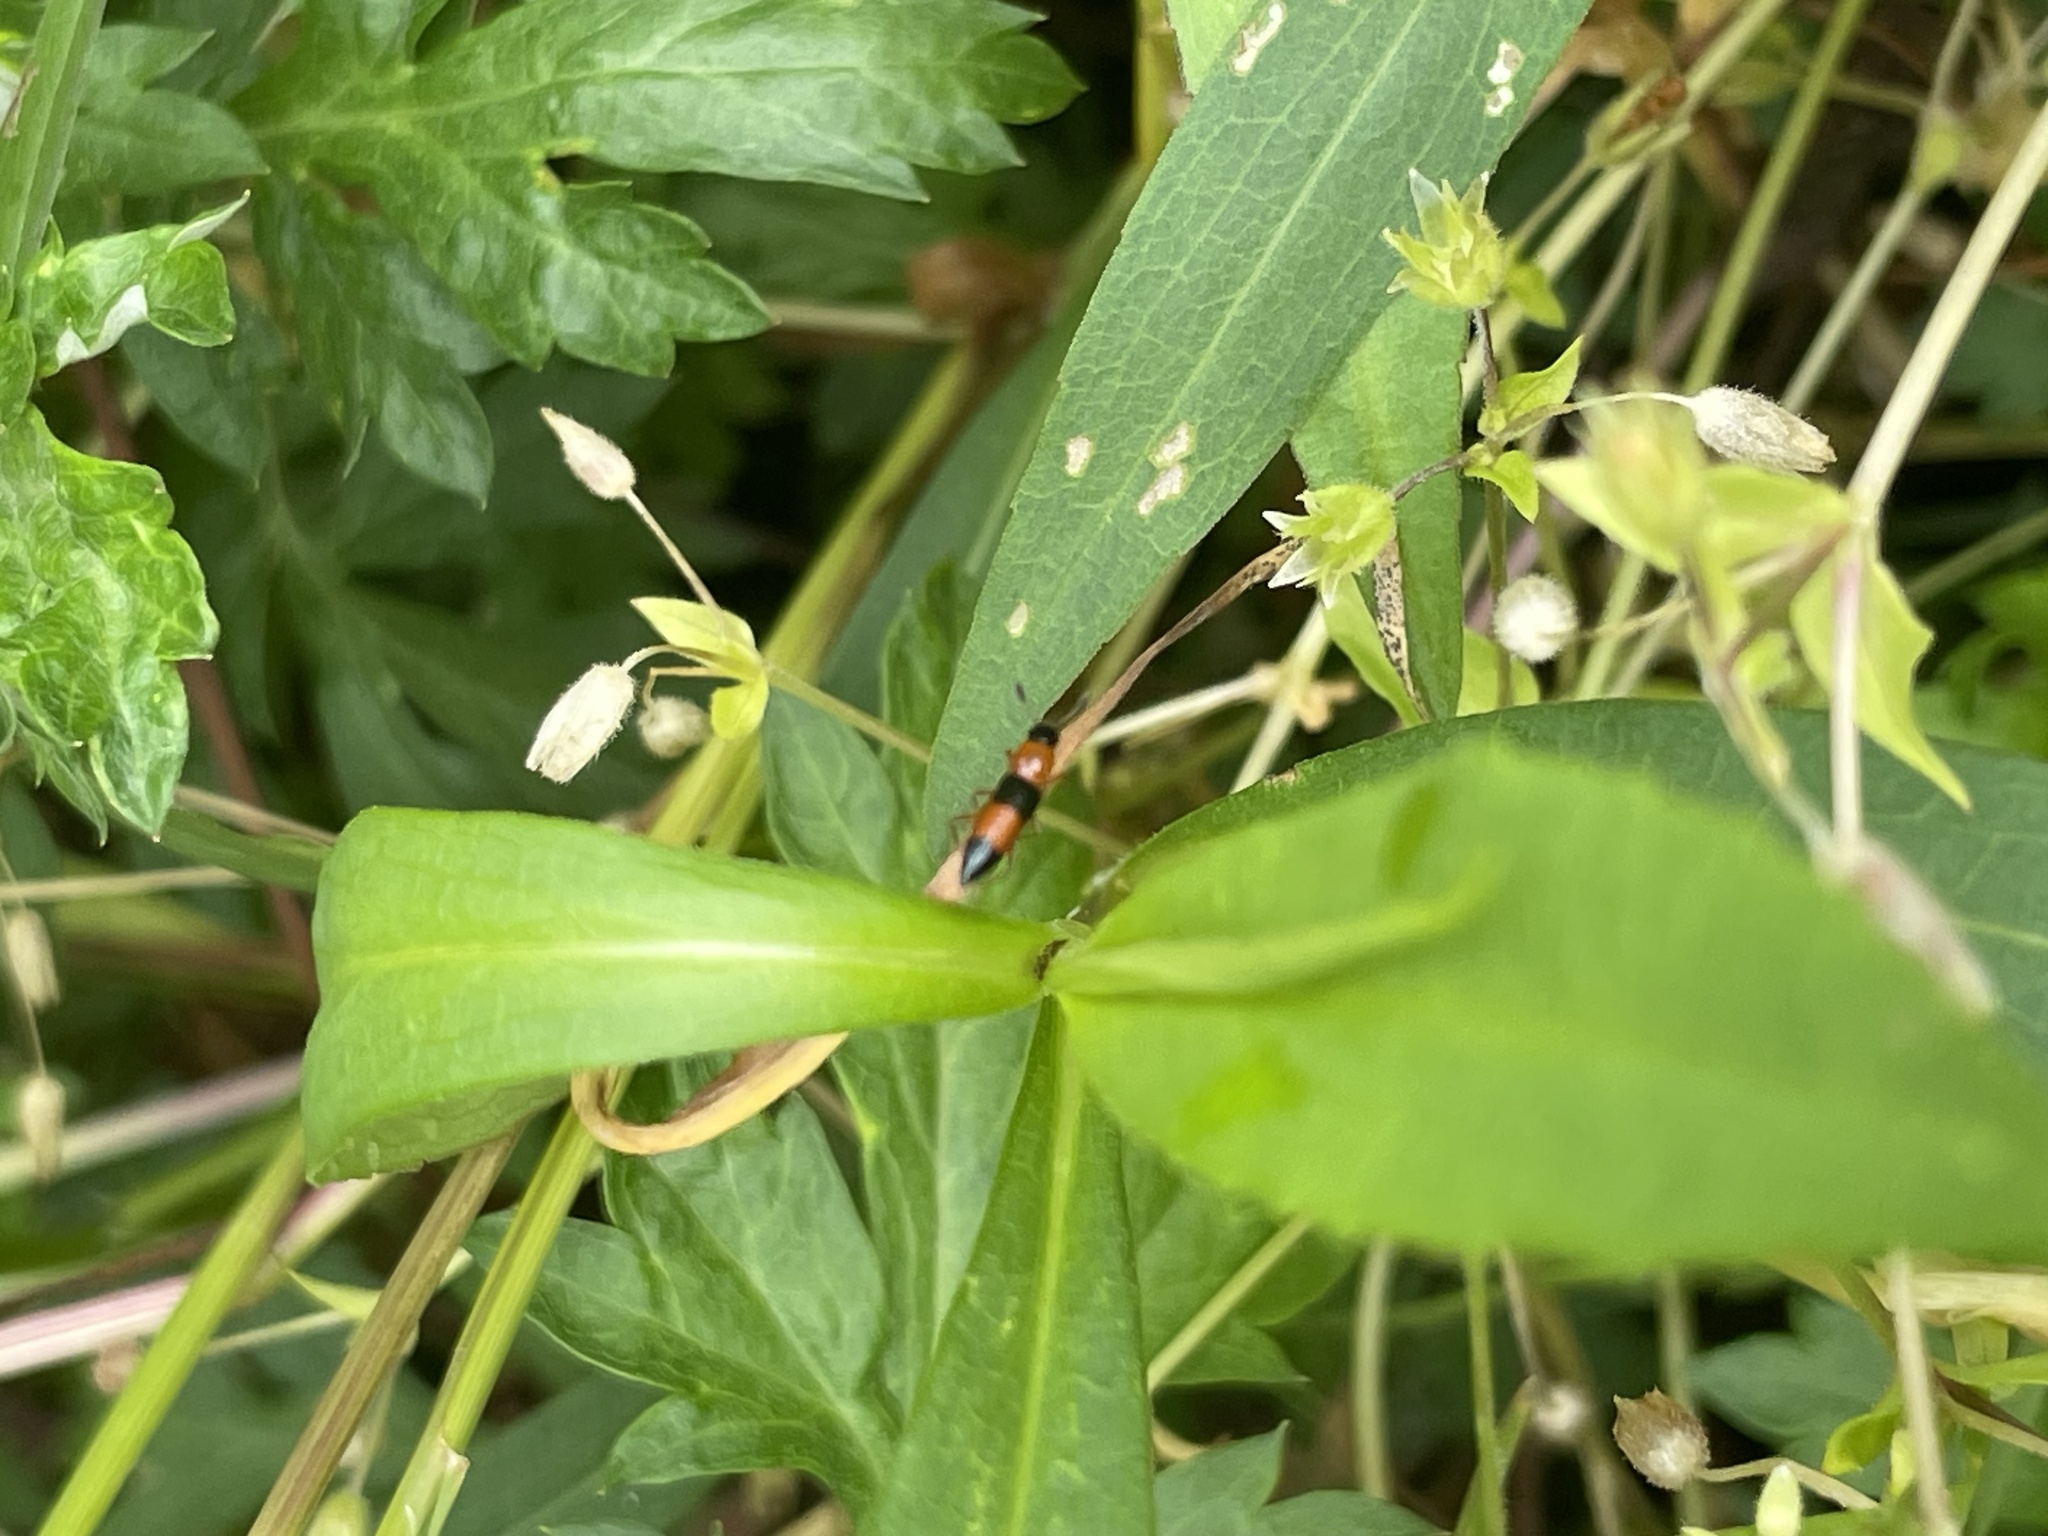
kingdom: Animalia
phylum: Arthropoda
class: Insecta
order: Coleoptera
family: Erotylidae
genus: Languria
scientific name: Languria trifasciata
